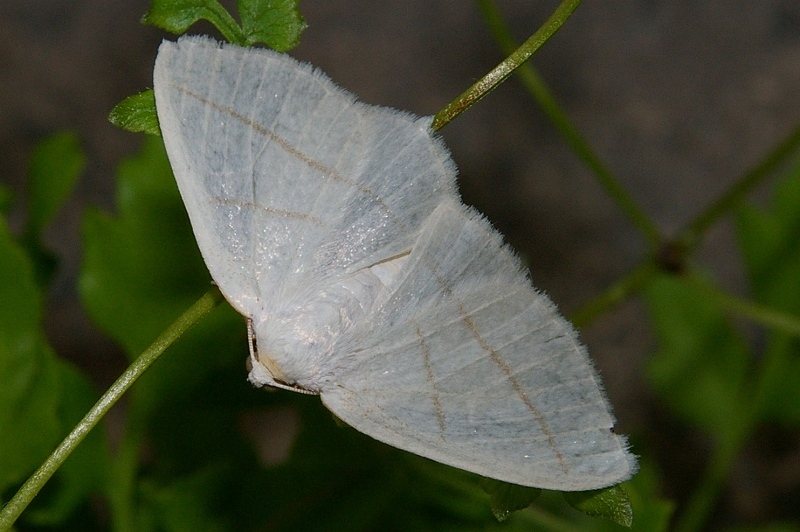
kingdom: Animalia
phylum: Arthropoda
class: Insecta
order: Lepidoptera
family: Geometridae
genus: Parabapta
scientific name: Parabapta clarissa
